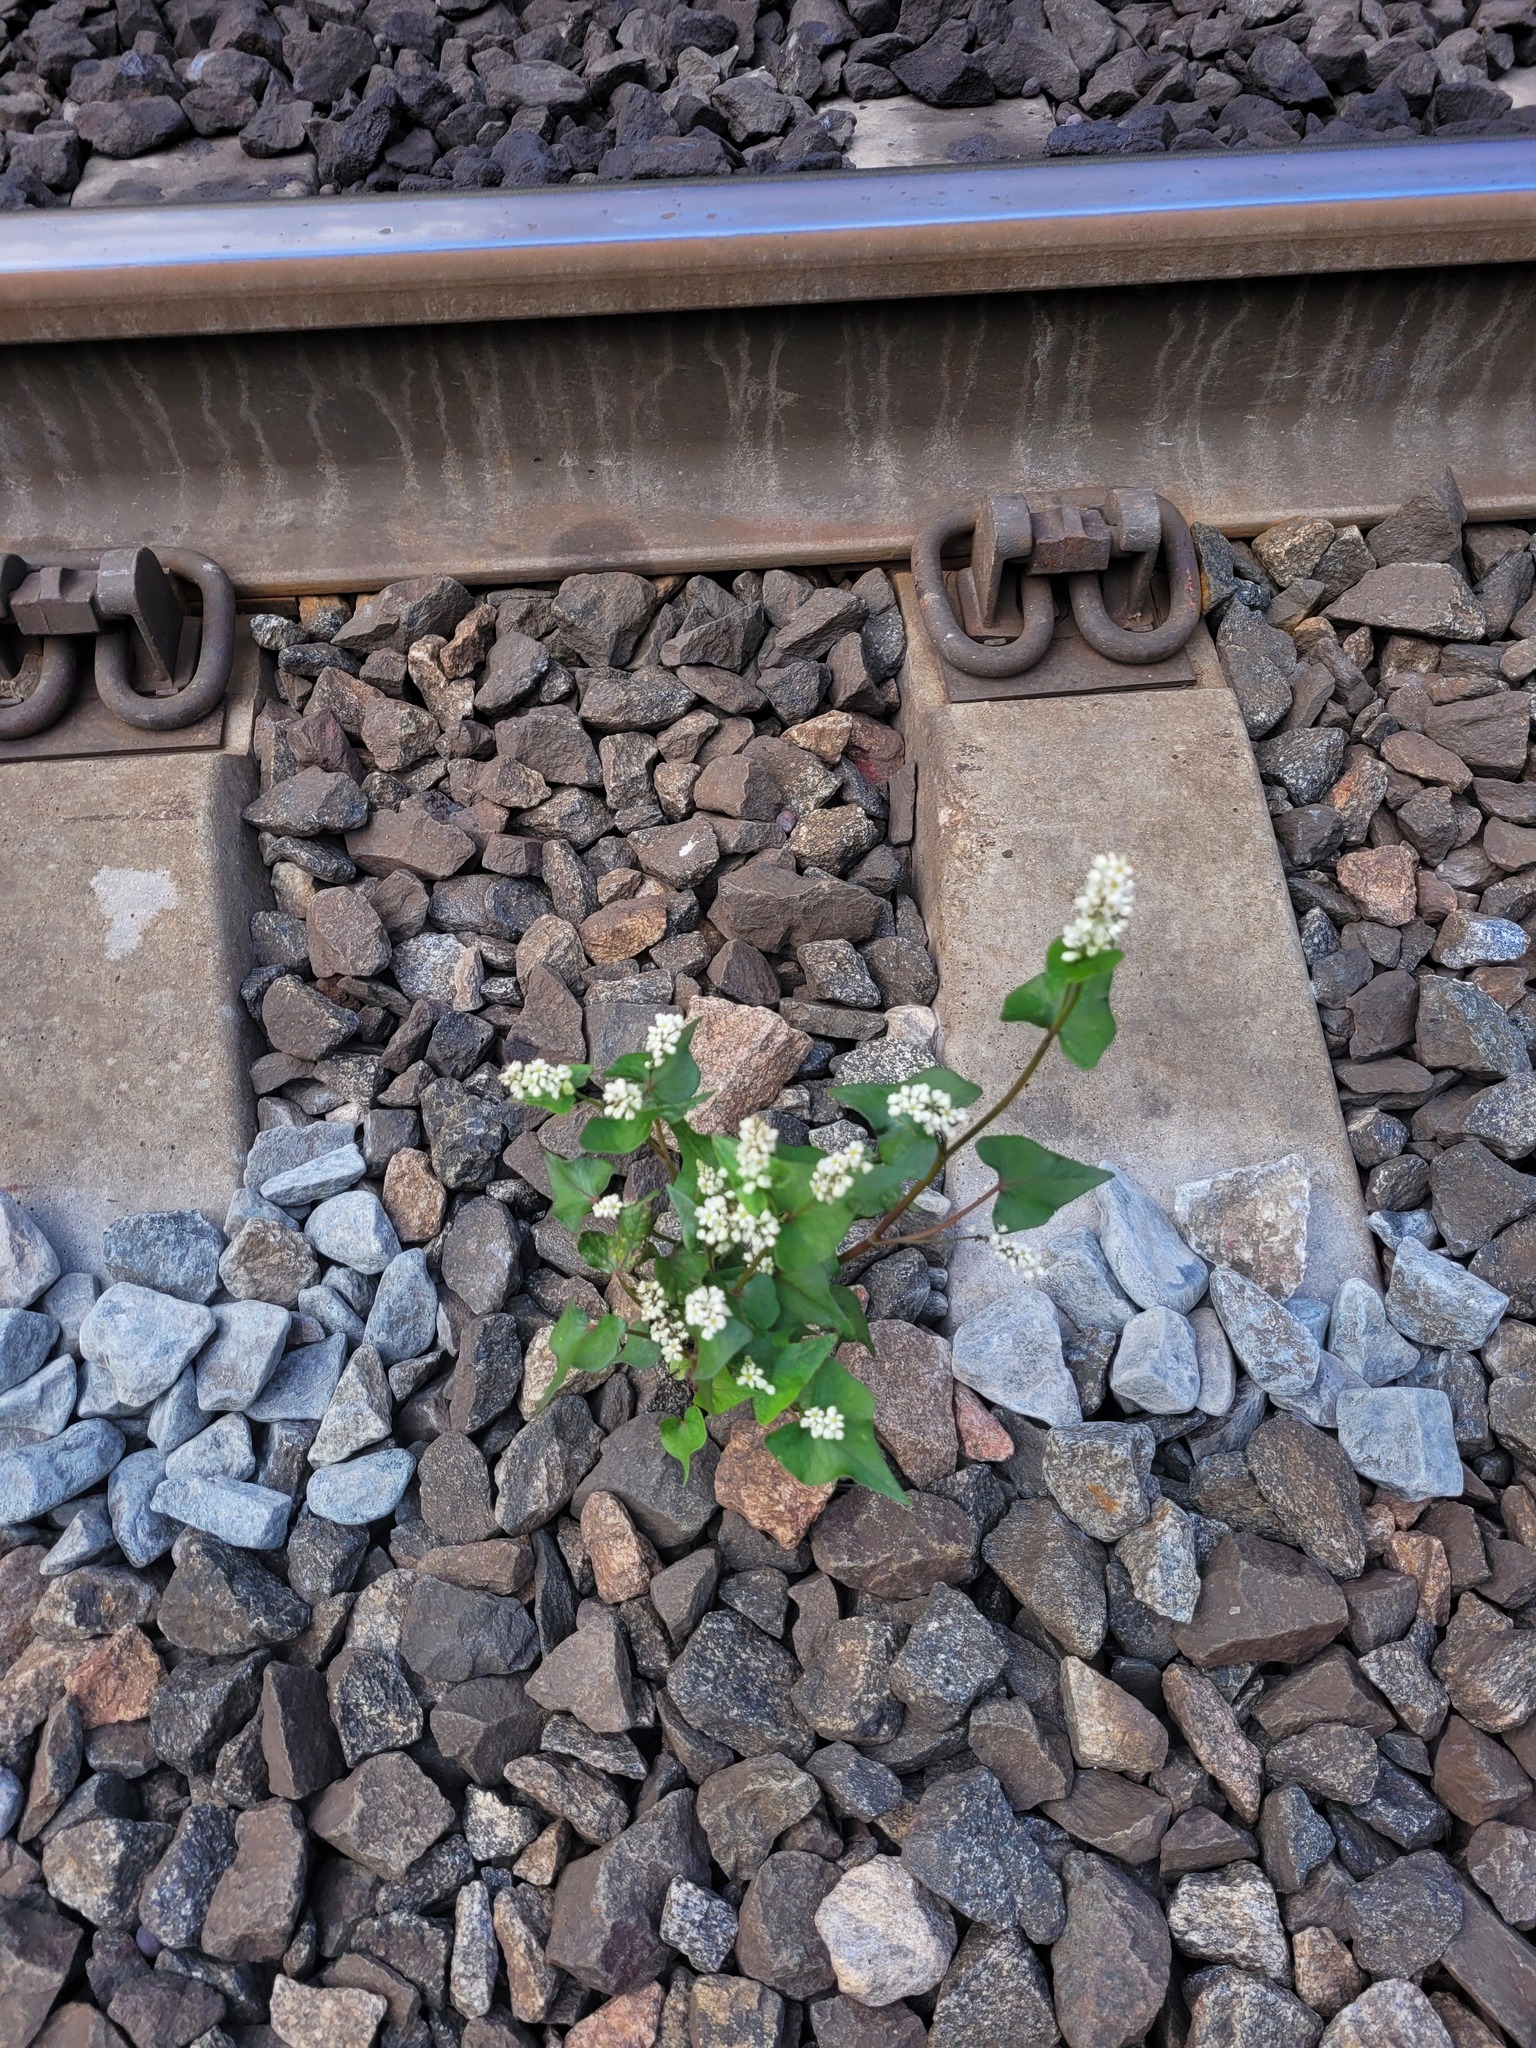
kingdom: Plantae
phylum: Tracheophyta
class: Magnoliopsida
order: Caryophyllales
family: Polygonaceae
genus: Fagopyrum
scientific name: Fagopyrum esculentum
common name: Buckwheat
